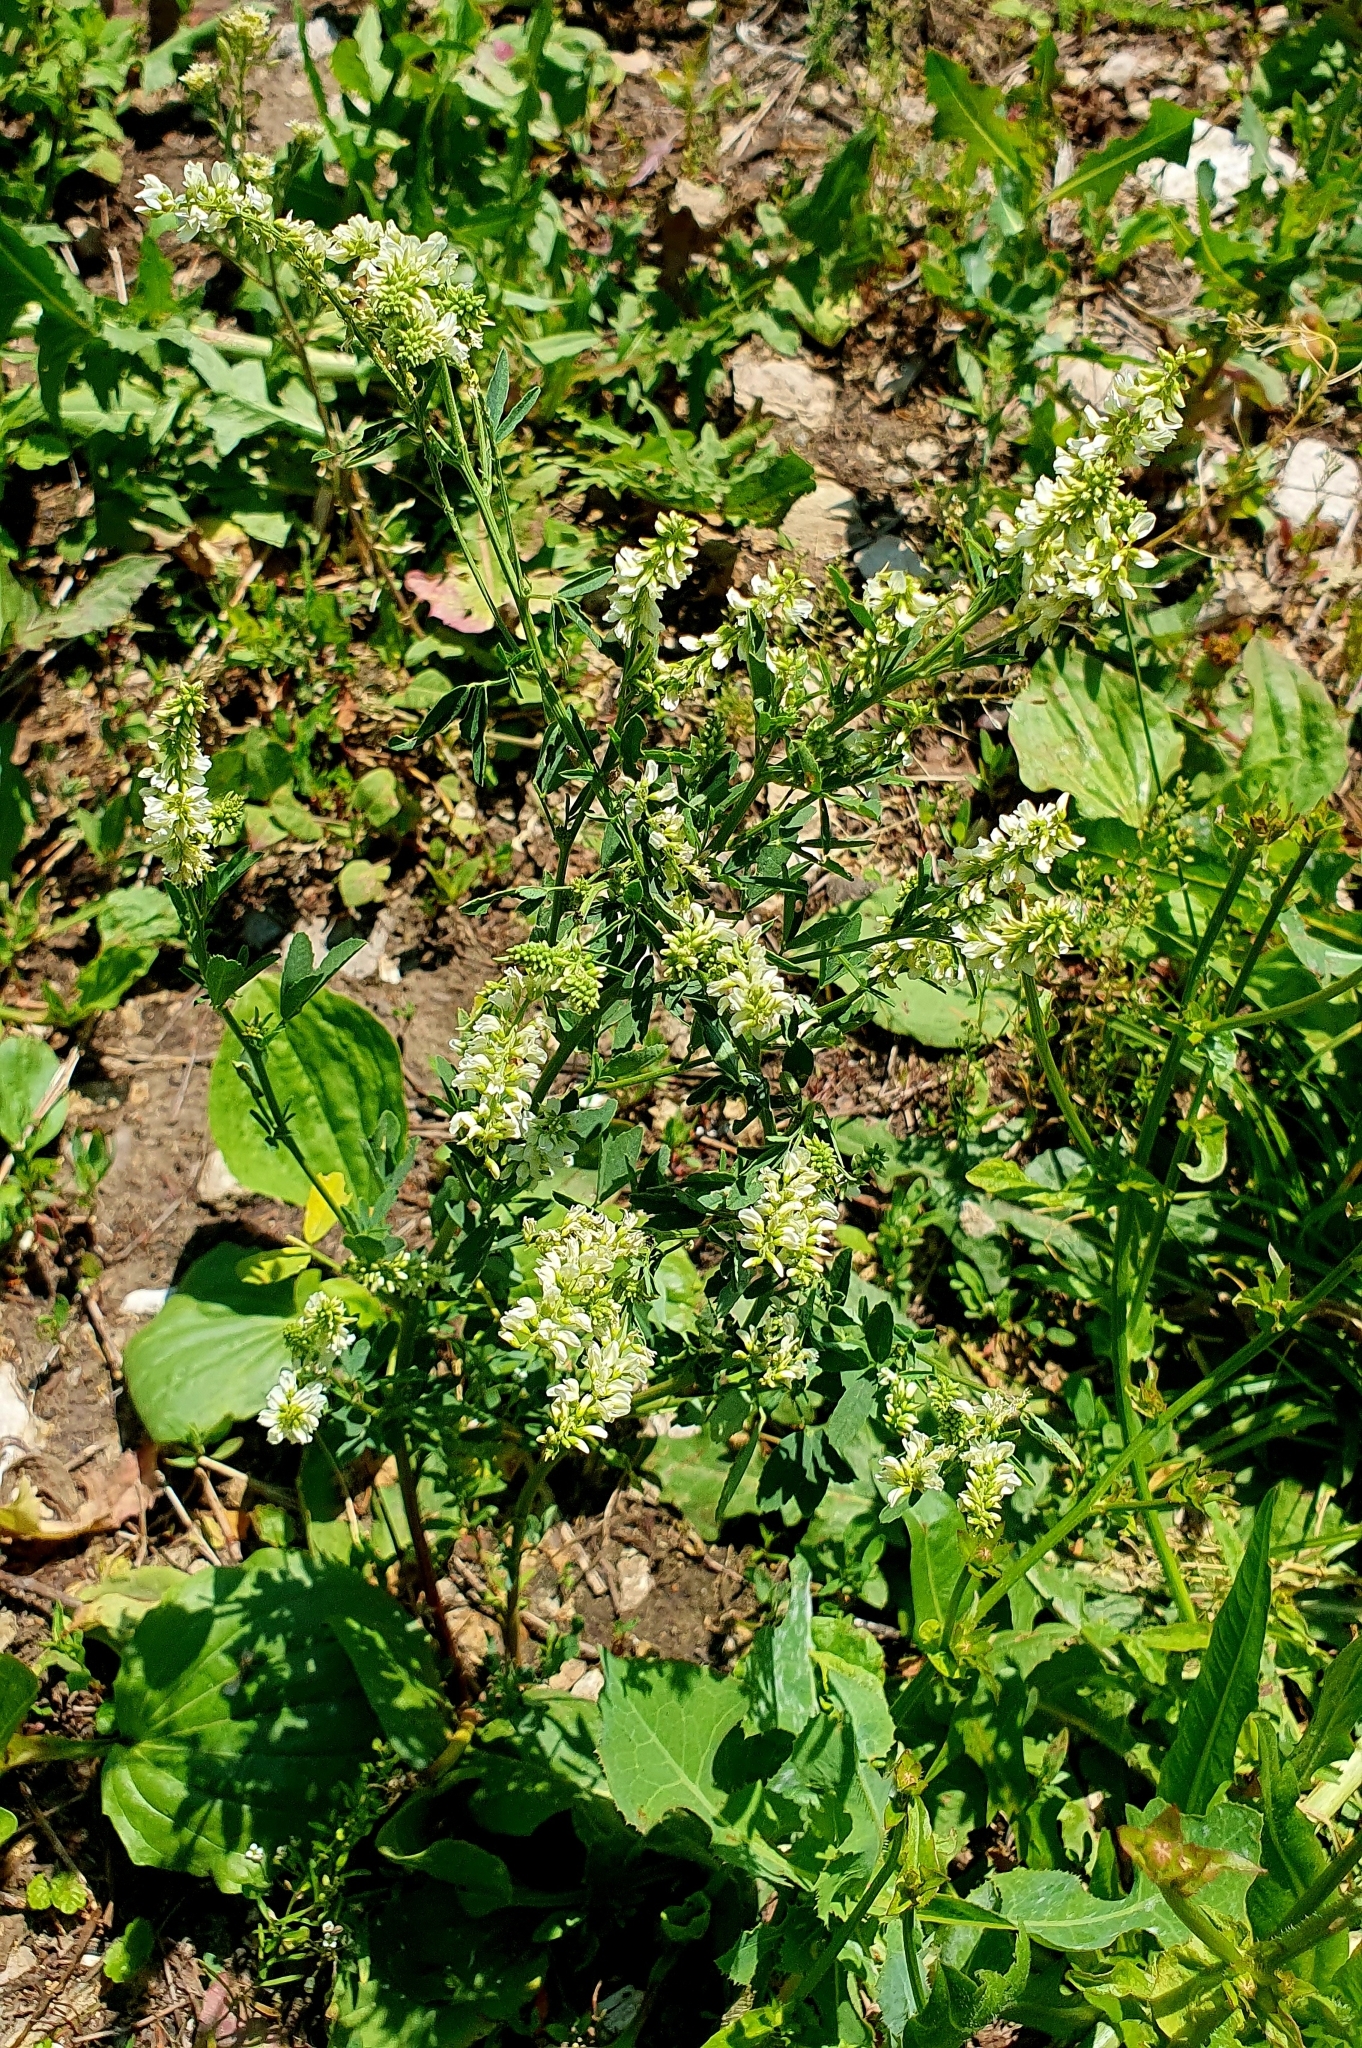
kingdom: Plantae
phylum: Tracheophyta
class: Magnoliopsida
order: Fabales
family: Fabaceae
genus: Melilotus
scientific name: Melilotus albus
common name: White melilot
